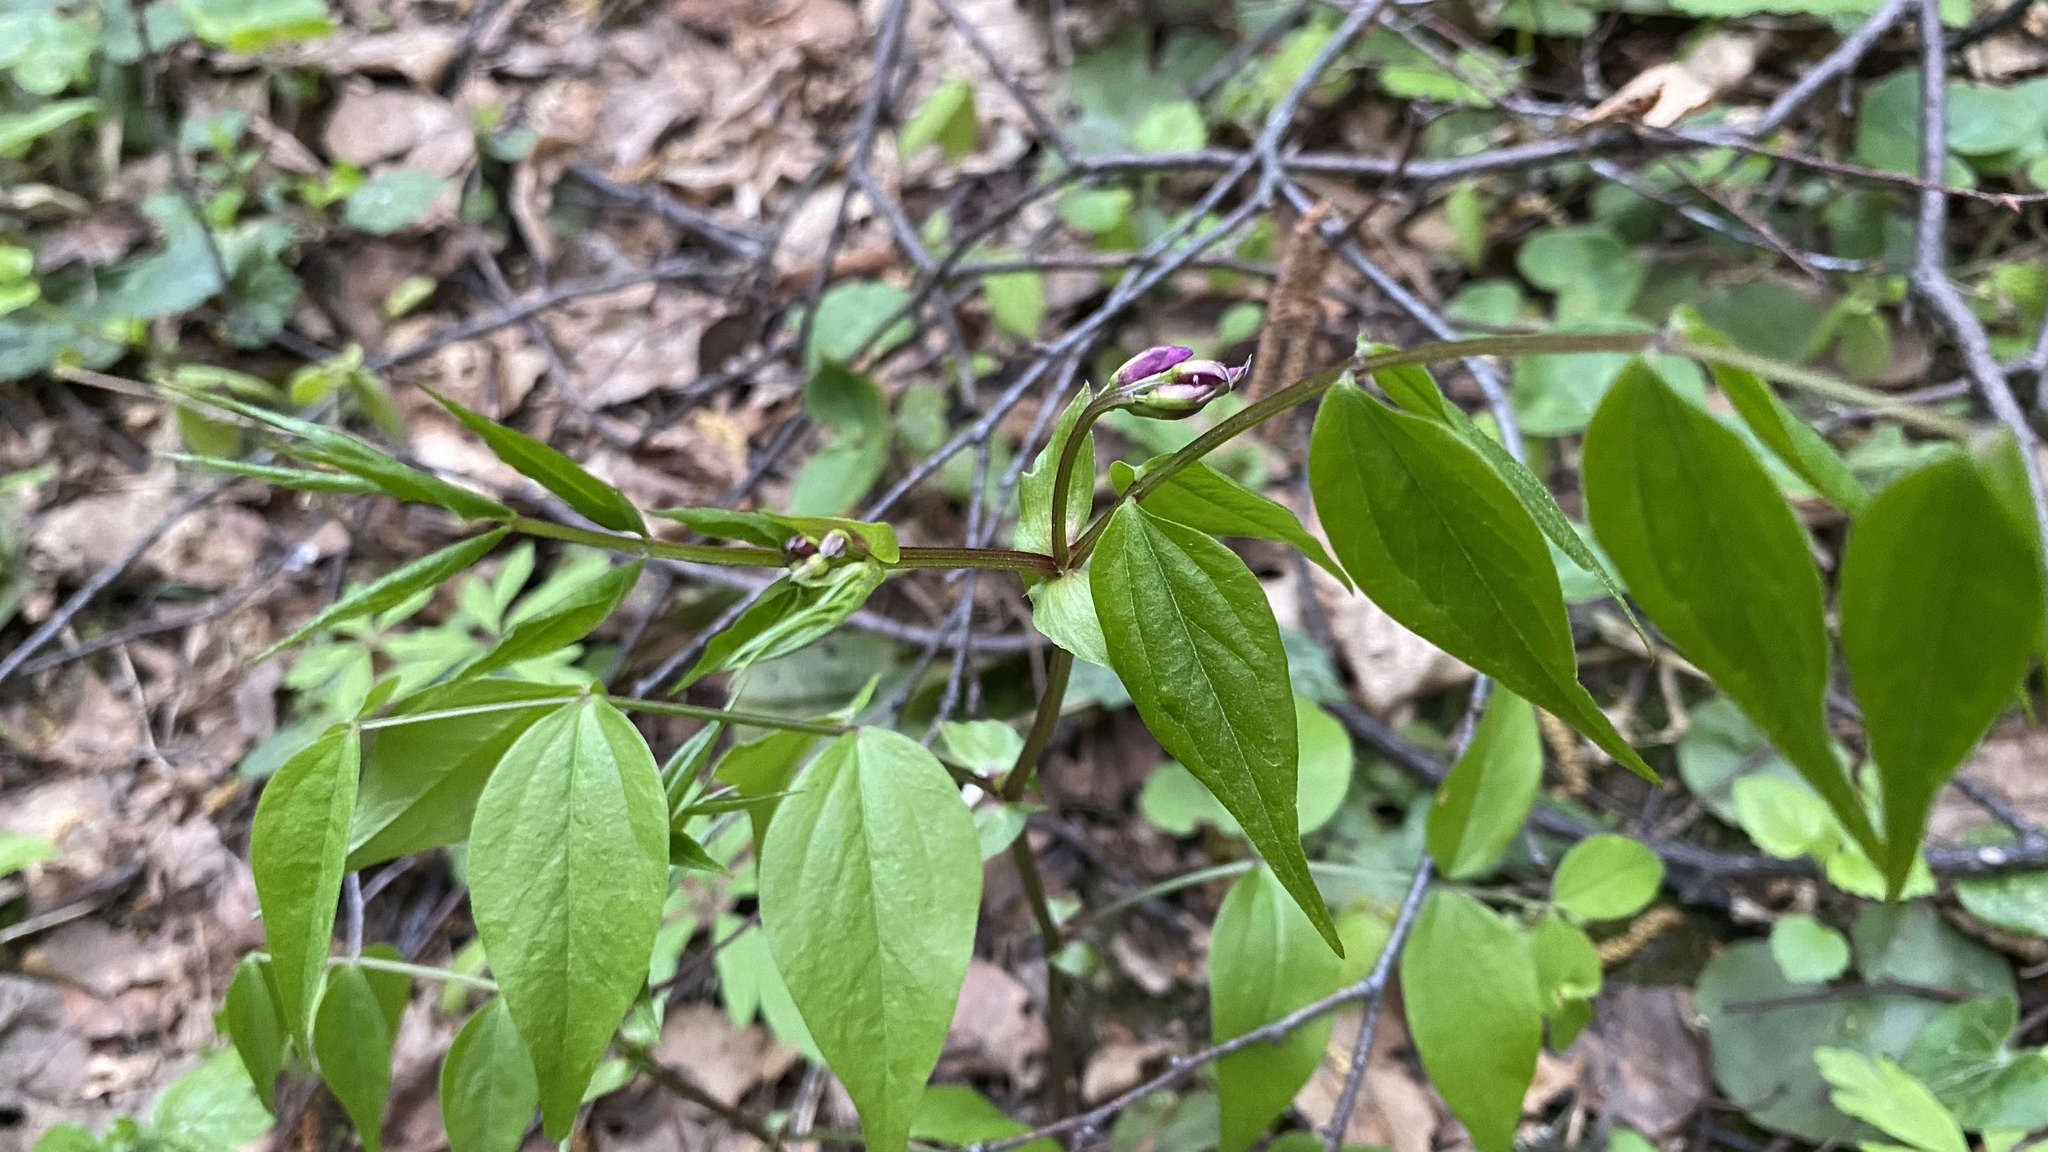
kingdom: Plantae
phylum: Tracheophyta
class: Magnoliopsida
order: Fabales
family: Fabaceae
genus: Lathyrus
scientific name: Lathyrus vernus
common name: Spring pea
